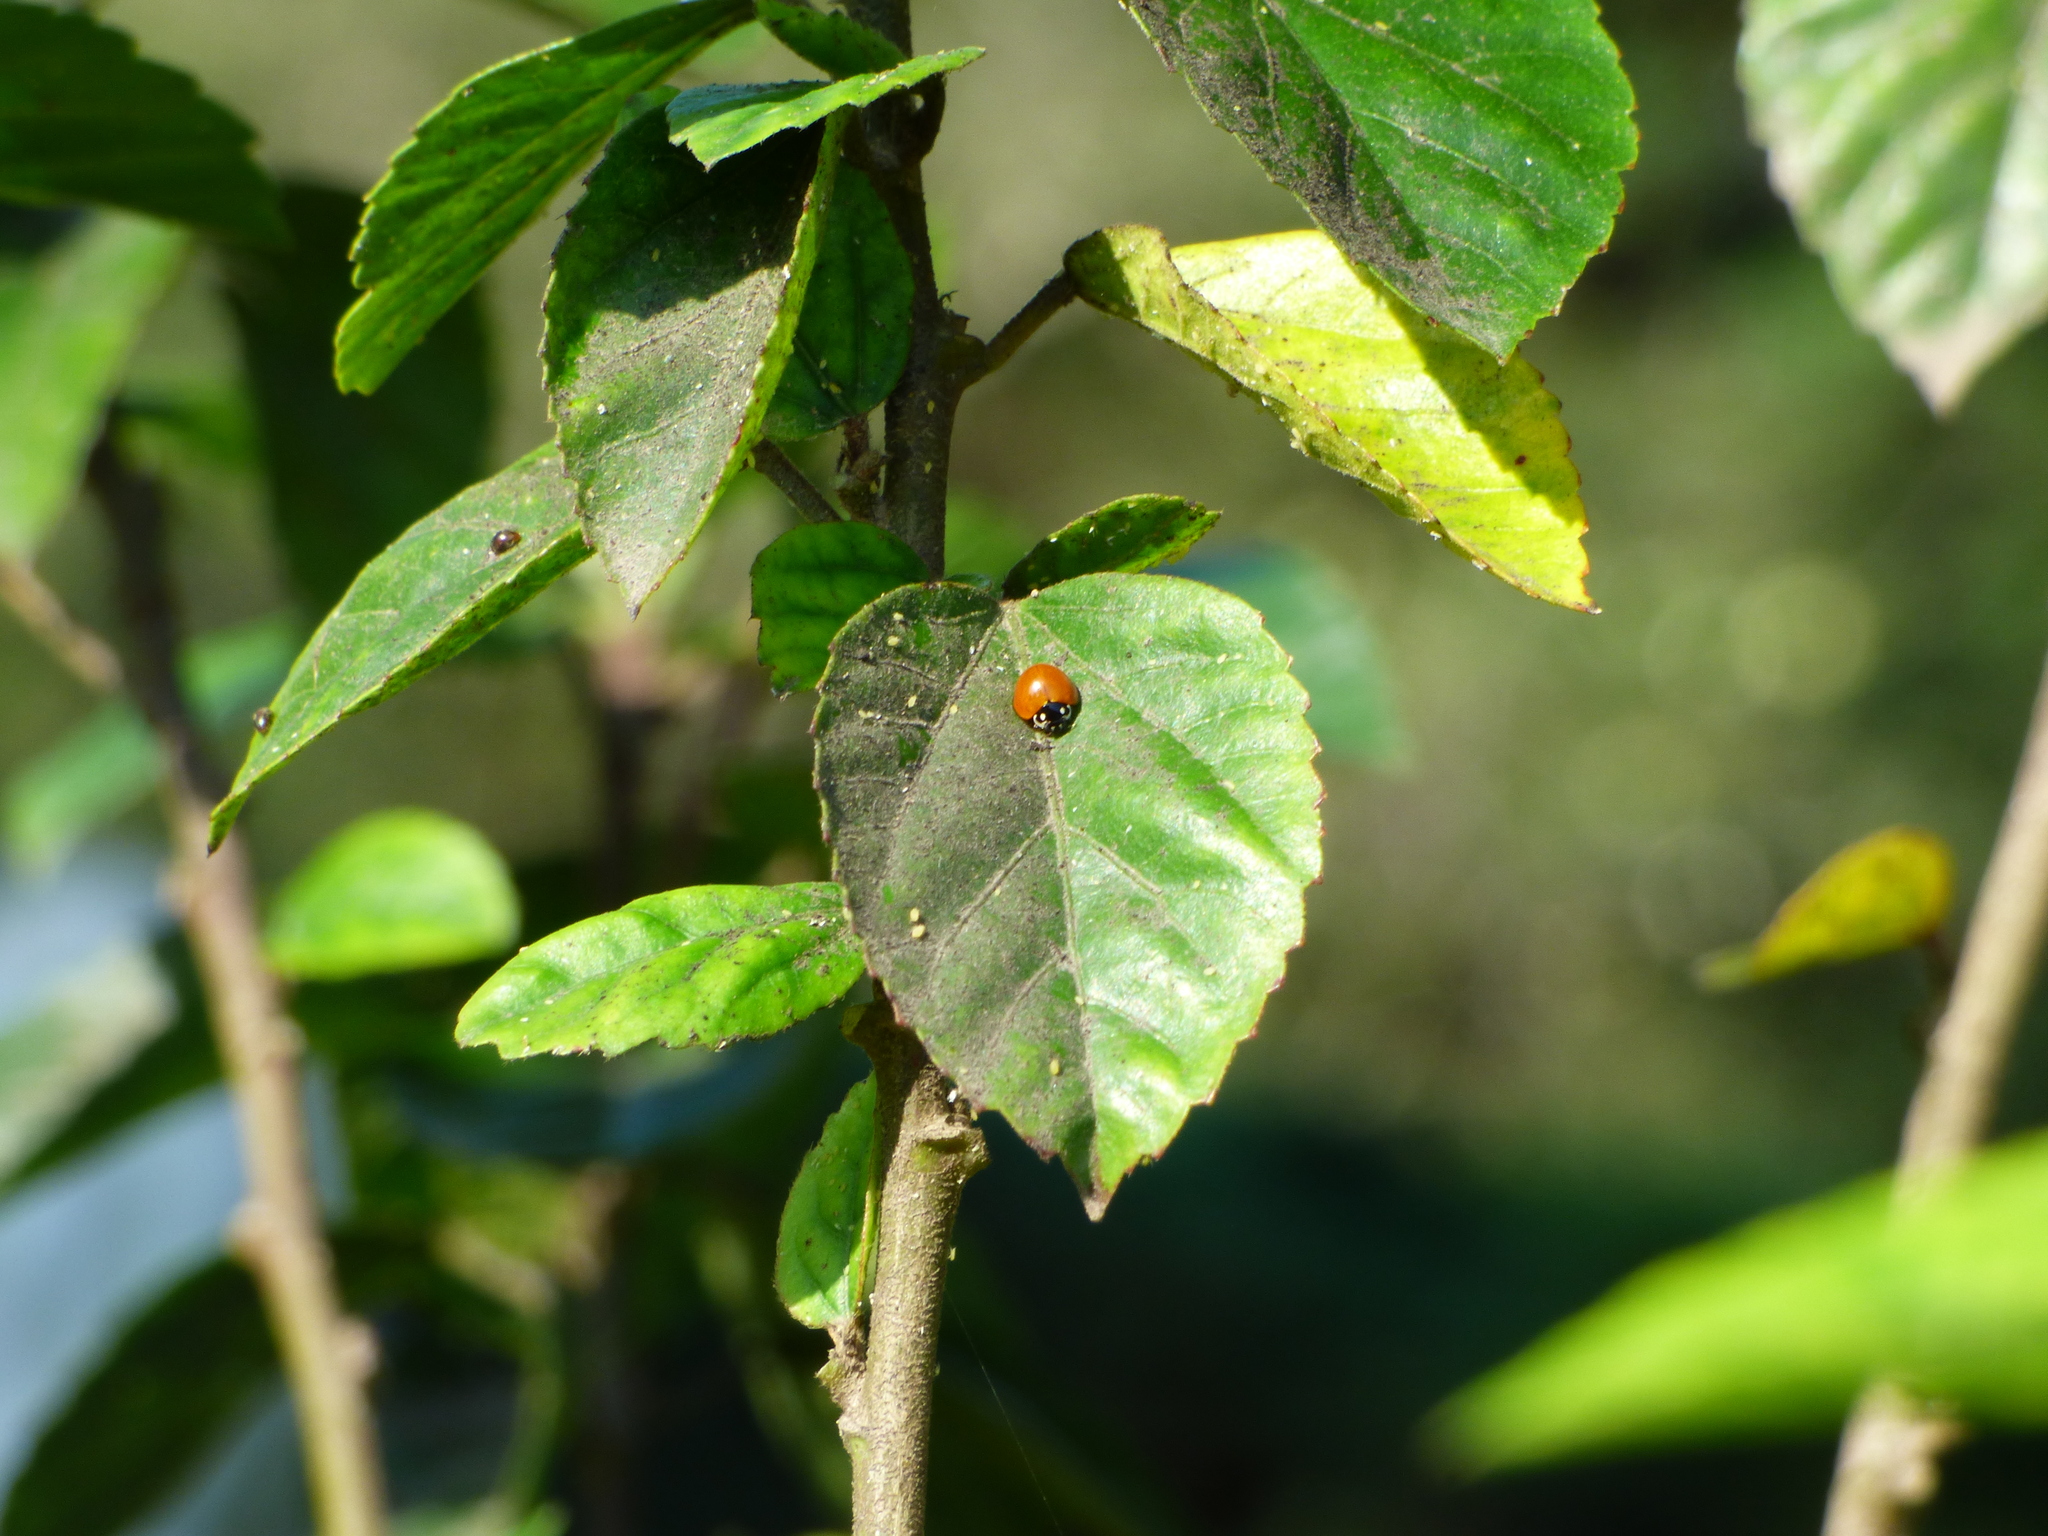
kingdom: Animalia
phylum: Arthropoda
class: Insecta
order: Coleoptera
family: Coccinellidae
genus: Cycloneda
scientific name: Cycloneda sanguinea
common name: Ladybird beetle
